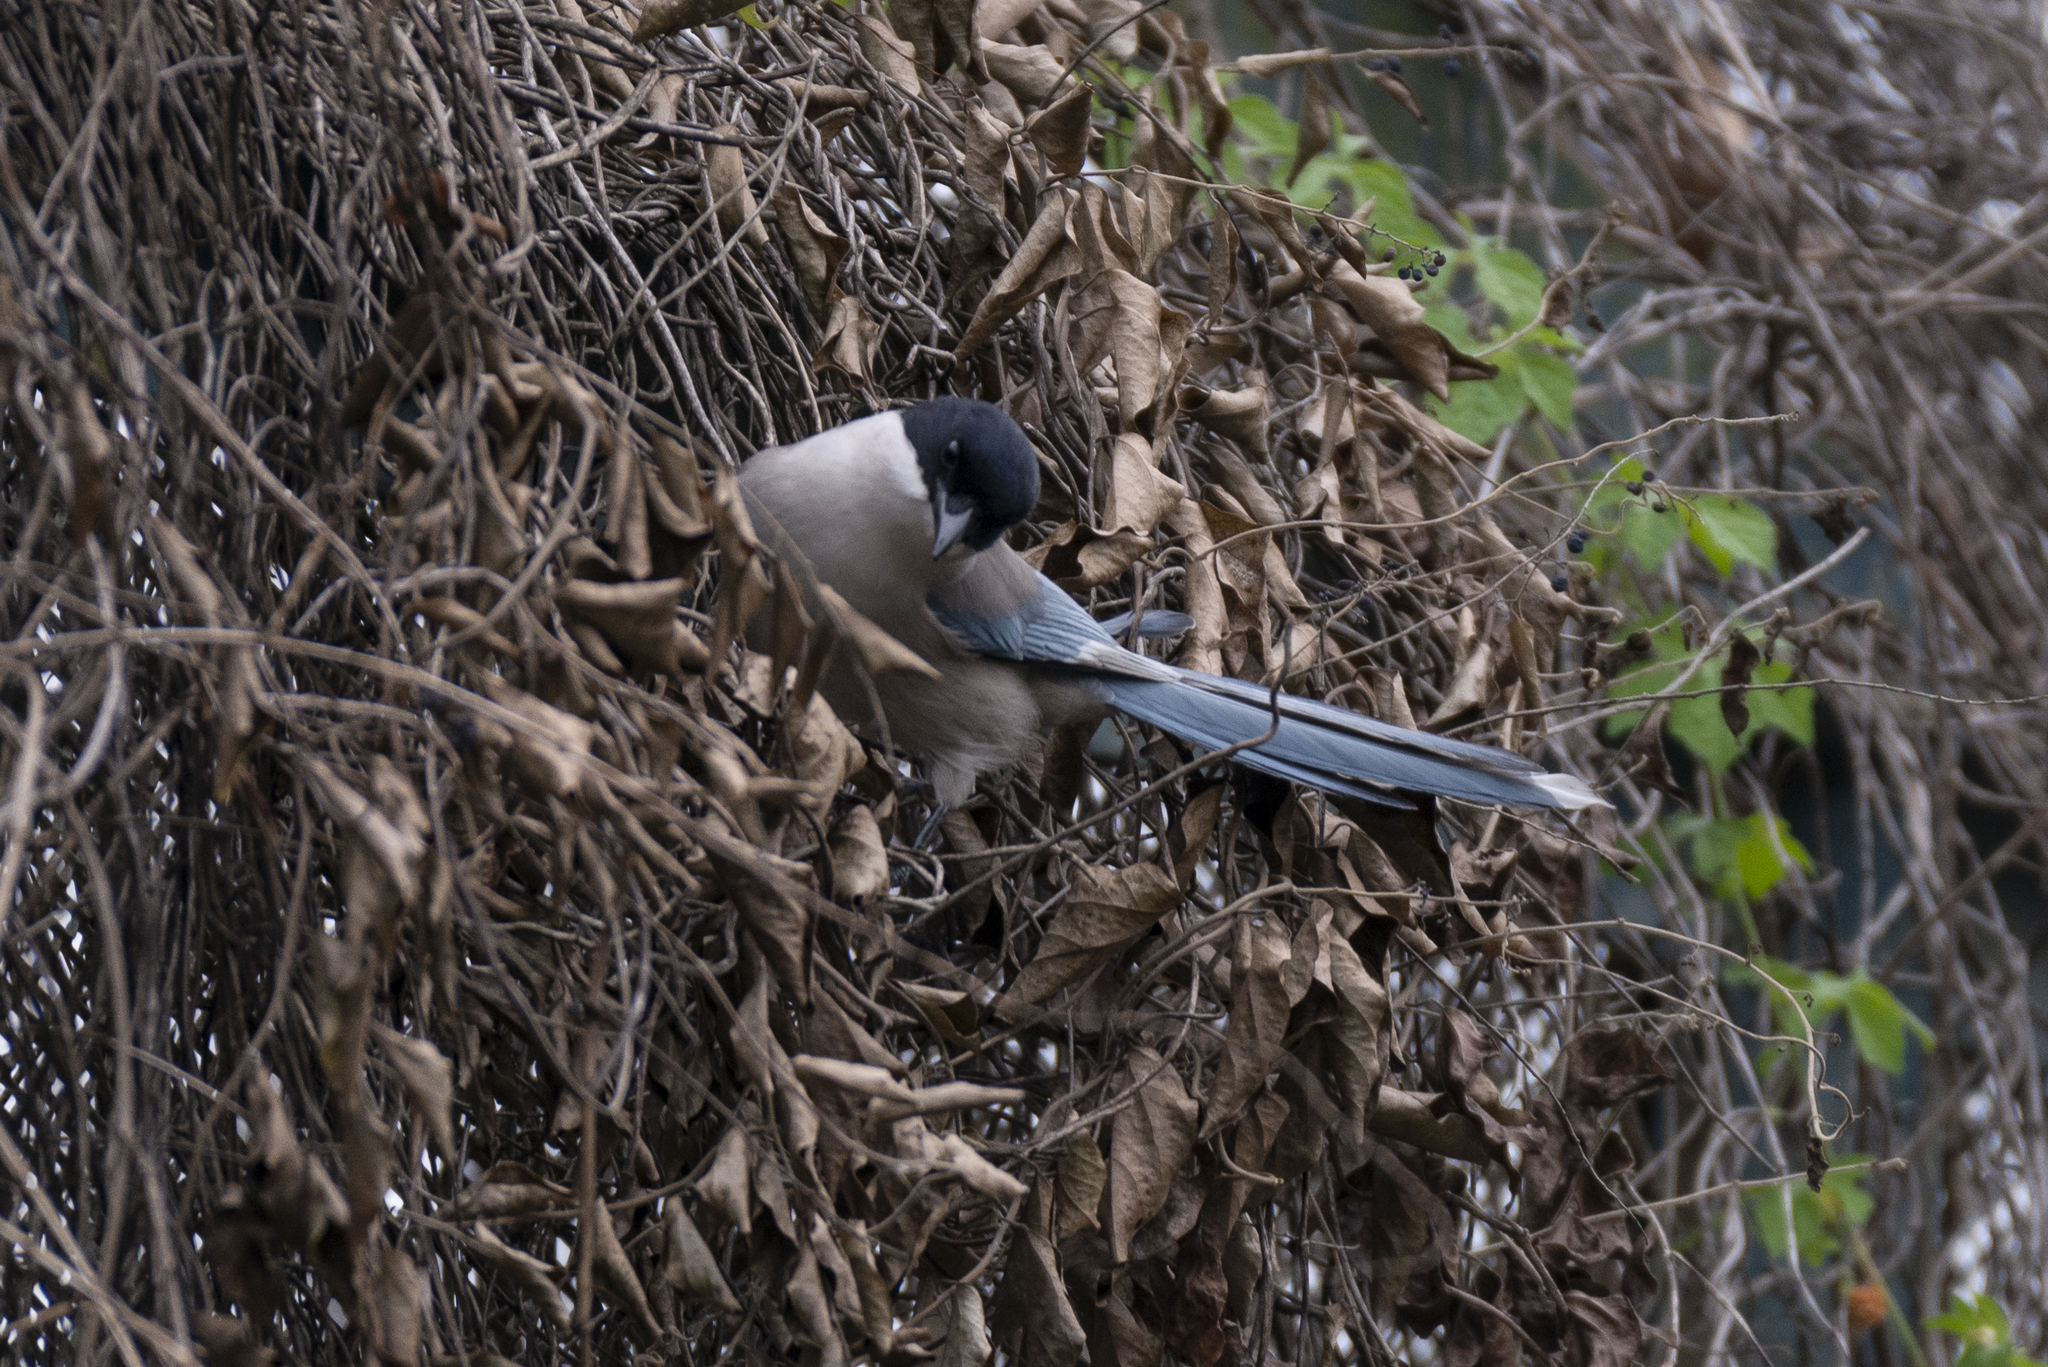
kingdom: Animalia
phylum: Chordata
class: Aves
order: Passeriformes
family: Corvidae
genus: Cyanopica
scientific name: Cyanopica cyanus
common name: Azure-winged magpie
